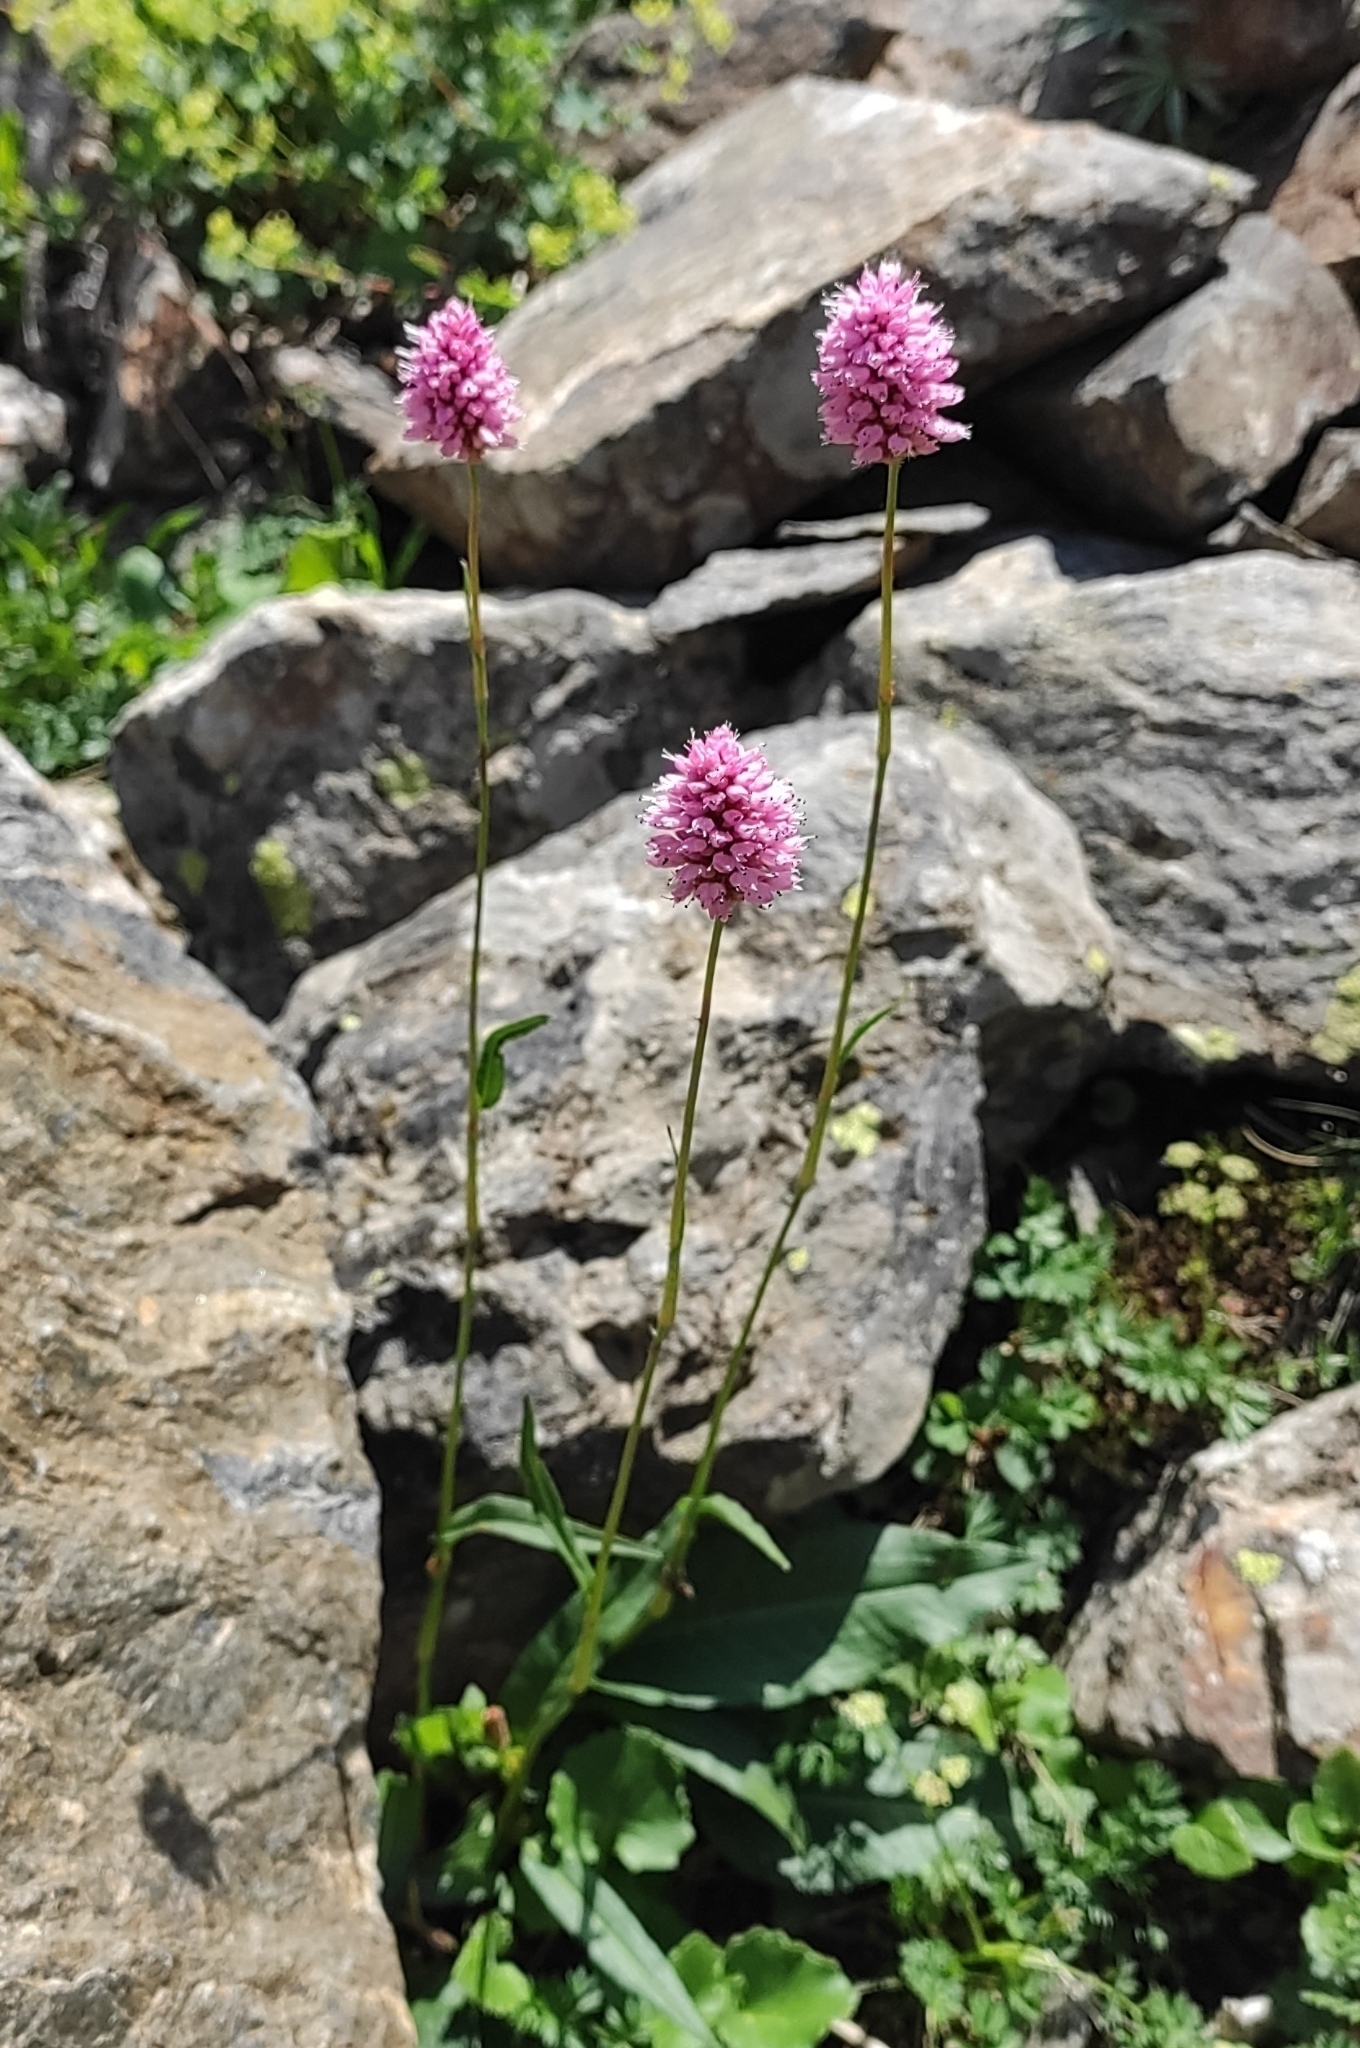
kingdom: Plantae
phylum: Tracheophyta
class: Magnoliopsida
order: Caryophyllales
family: Polygonaceae
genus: Bistorta
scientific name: Bistorta carnea
